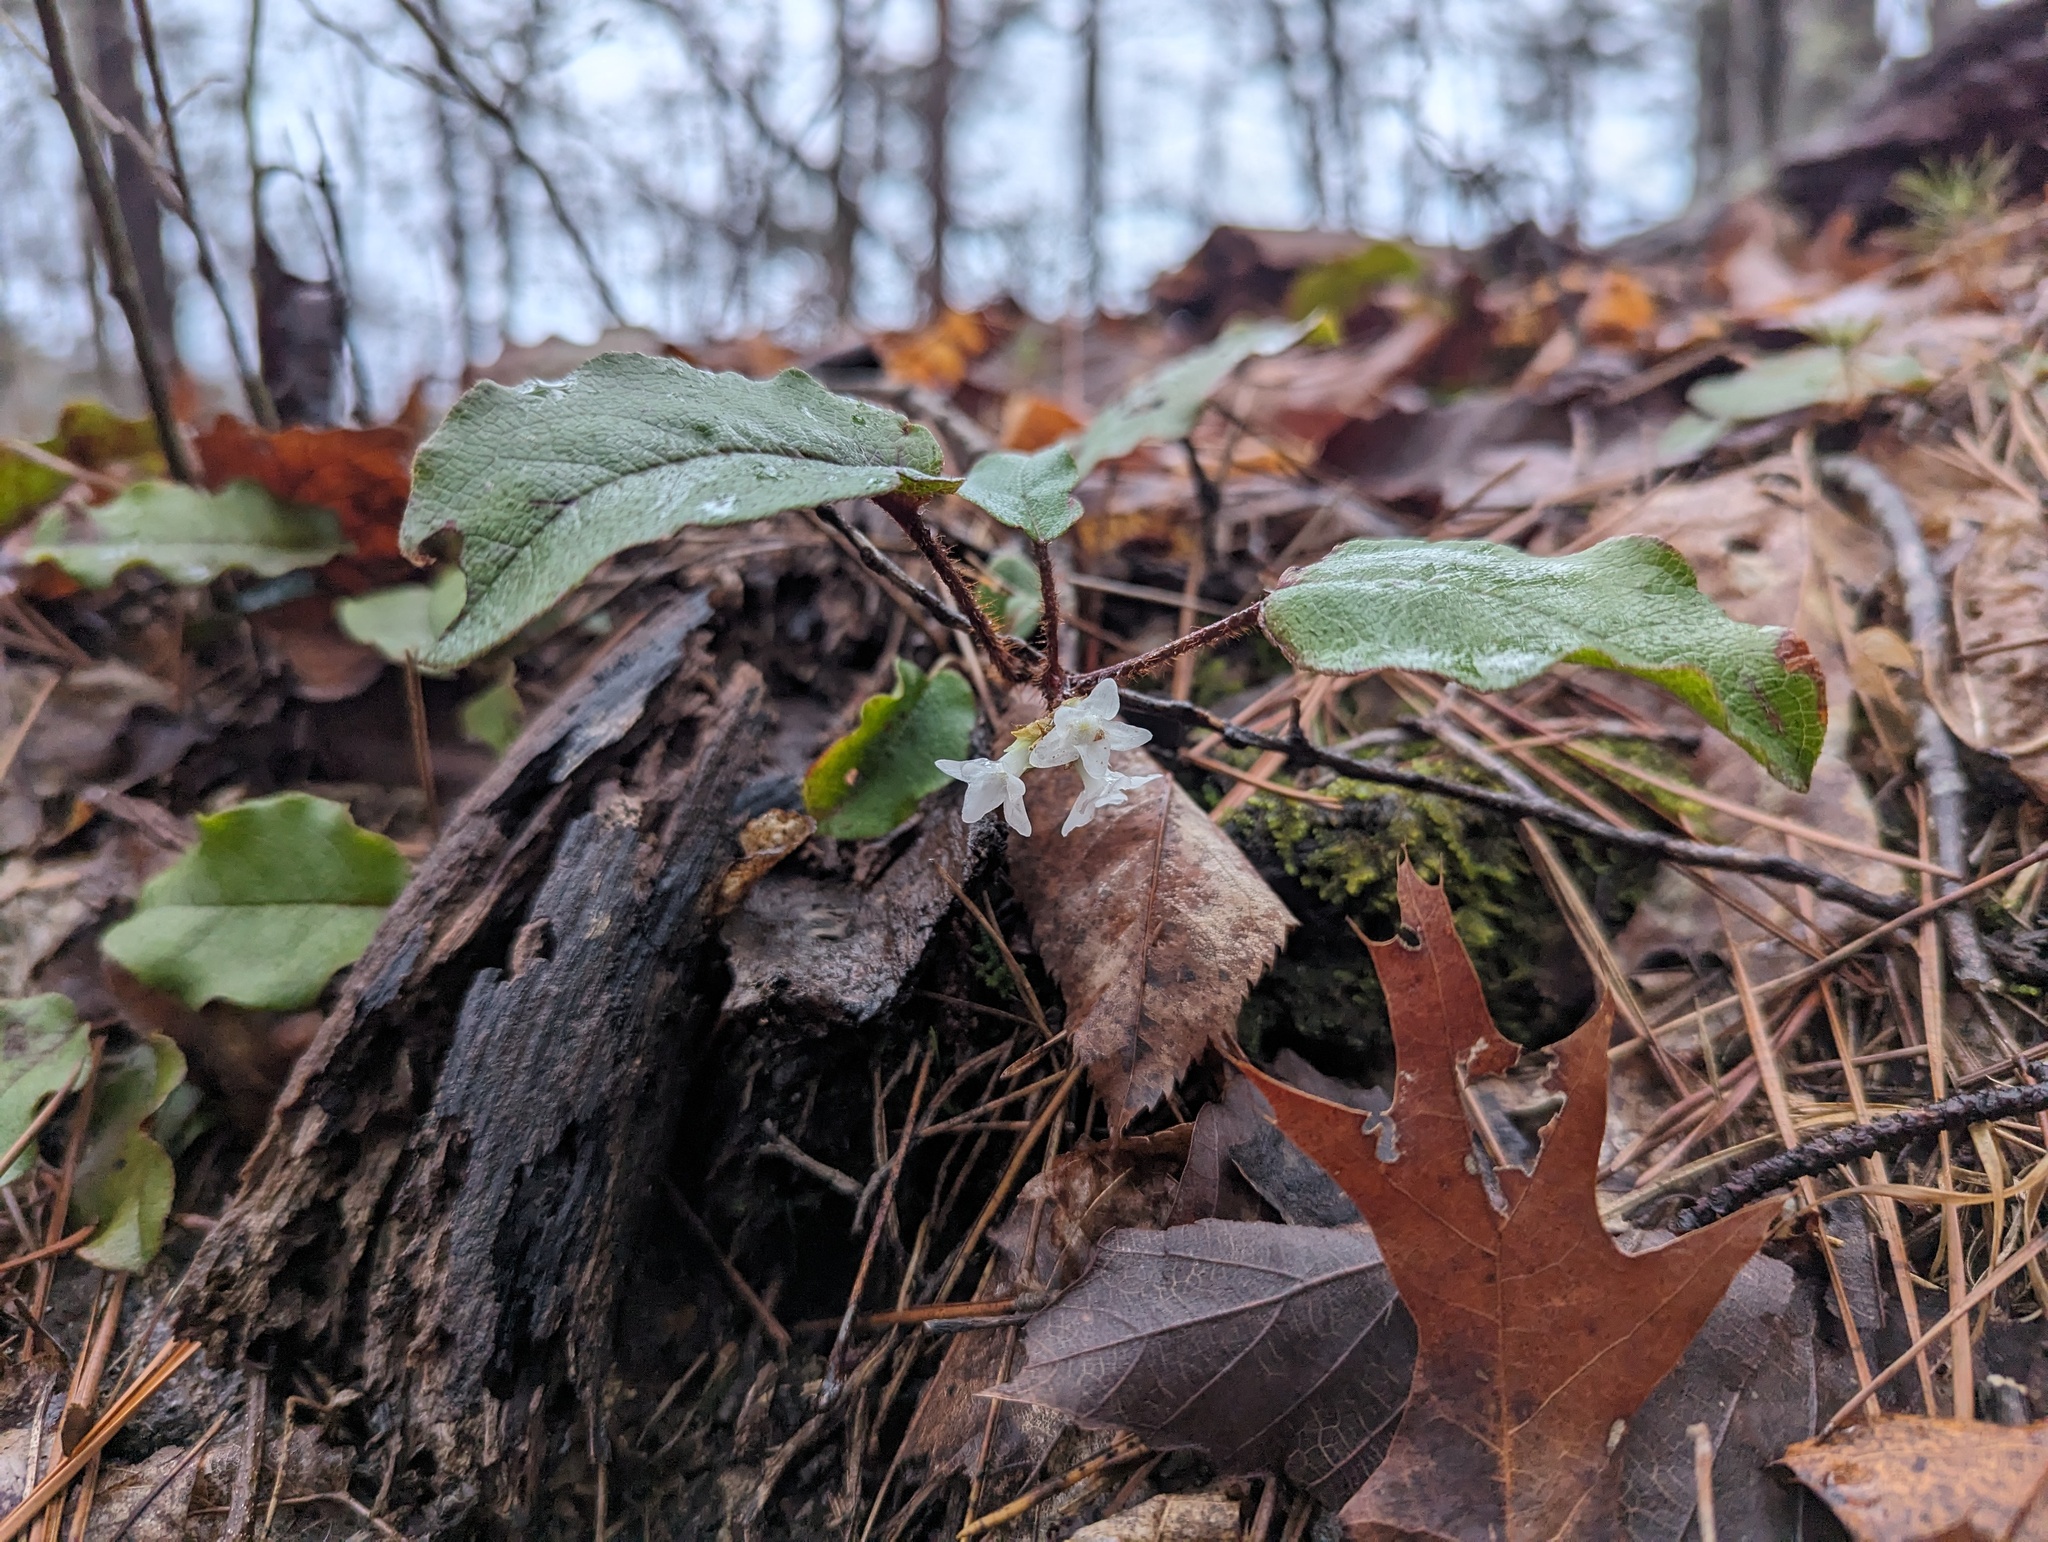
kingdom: Plantae
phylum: Tracheophyta
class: Magnoliopsida
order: Ericales
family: Ericaceae
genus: Epigaea
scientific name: Epigaea repens
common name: Gravelroot
